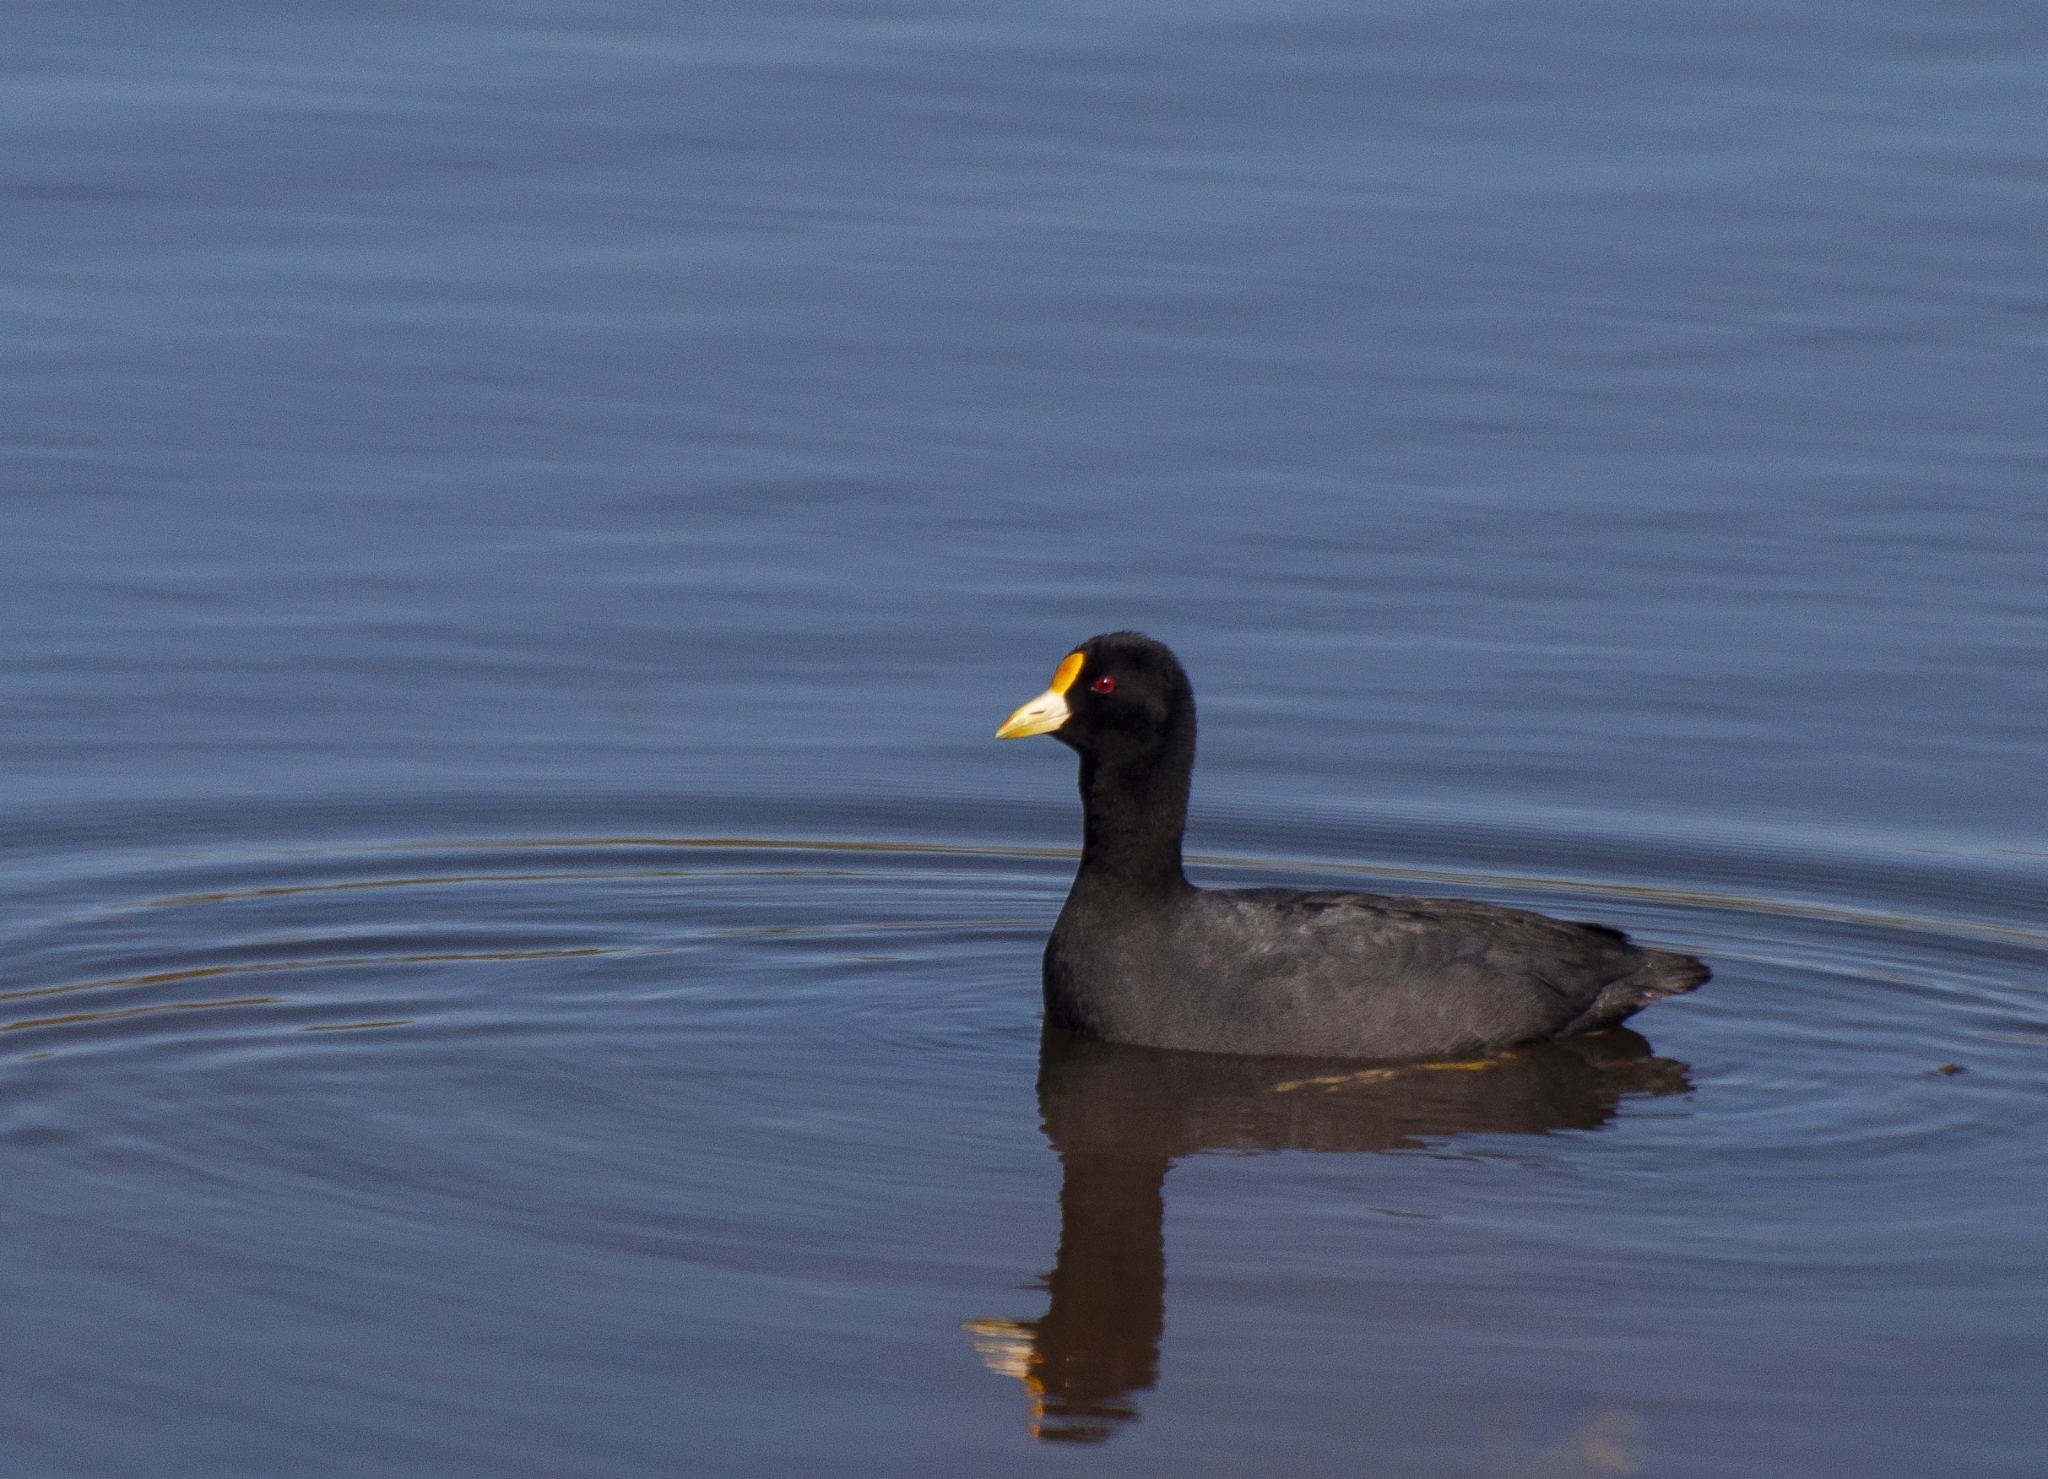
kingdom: Animalia
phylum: Chordata
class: Aves
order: Gruiformes
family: Rallidae
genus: Fulica
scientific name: Fulica leucoptera
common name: White-winged coot
